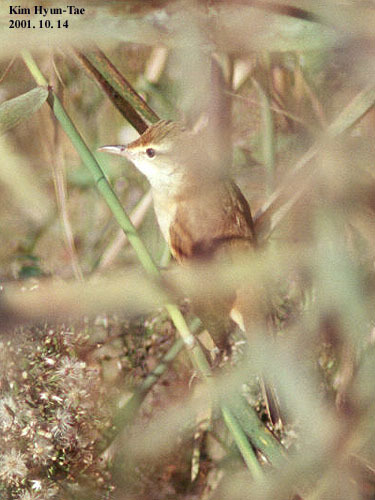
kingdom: Animalia
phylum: Chordata
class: Aves
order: Passeriformes
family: Acrocephalidae
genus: Acrocephalus
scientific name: Acrocephalus orientalis
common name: Oriental reed warbler
